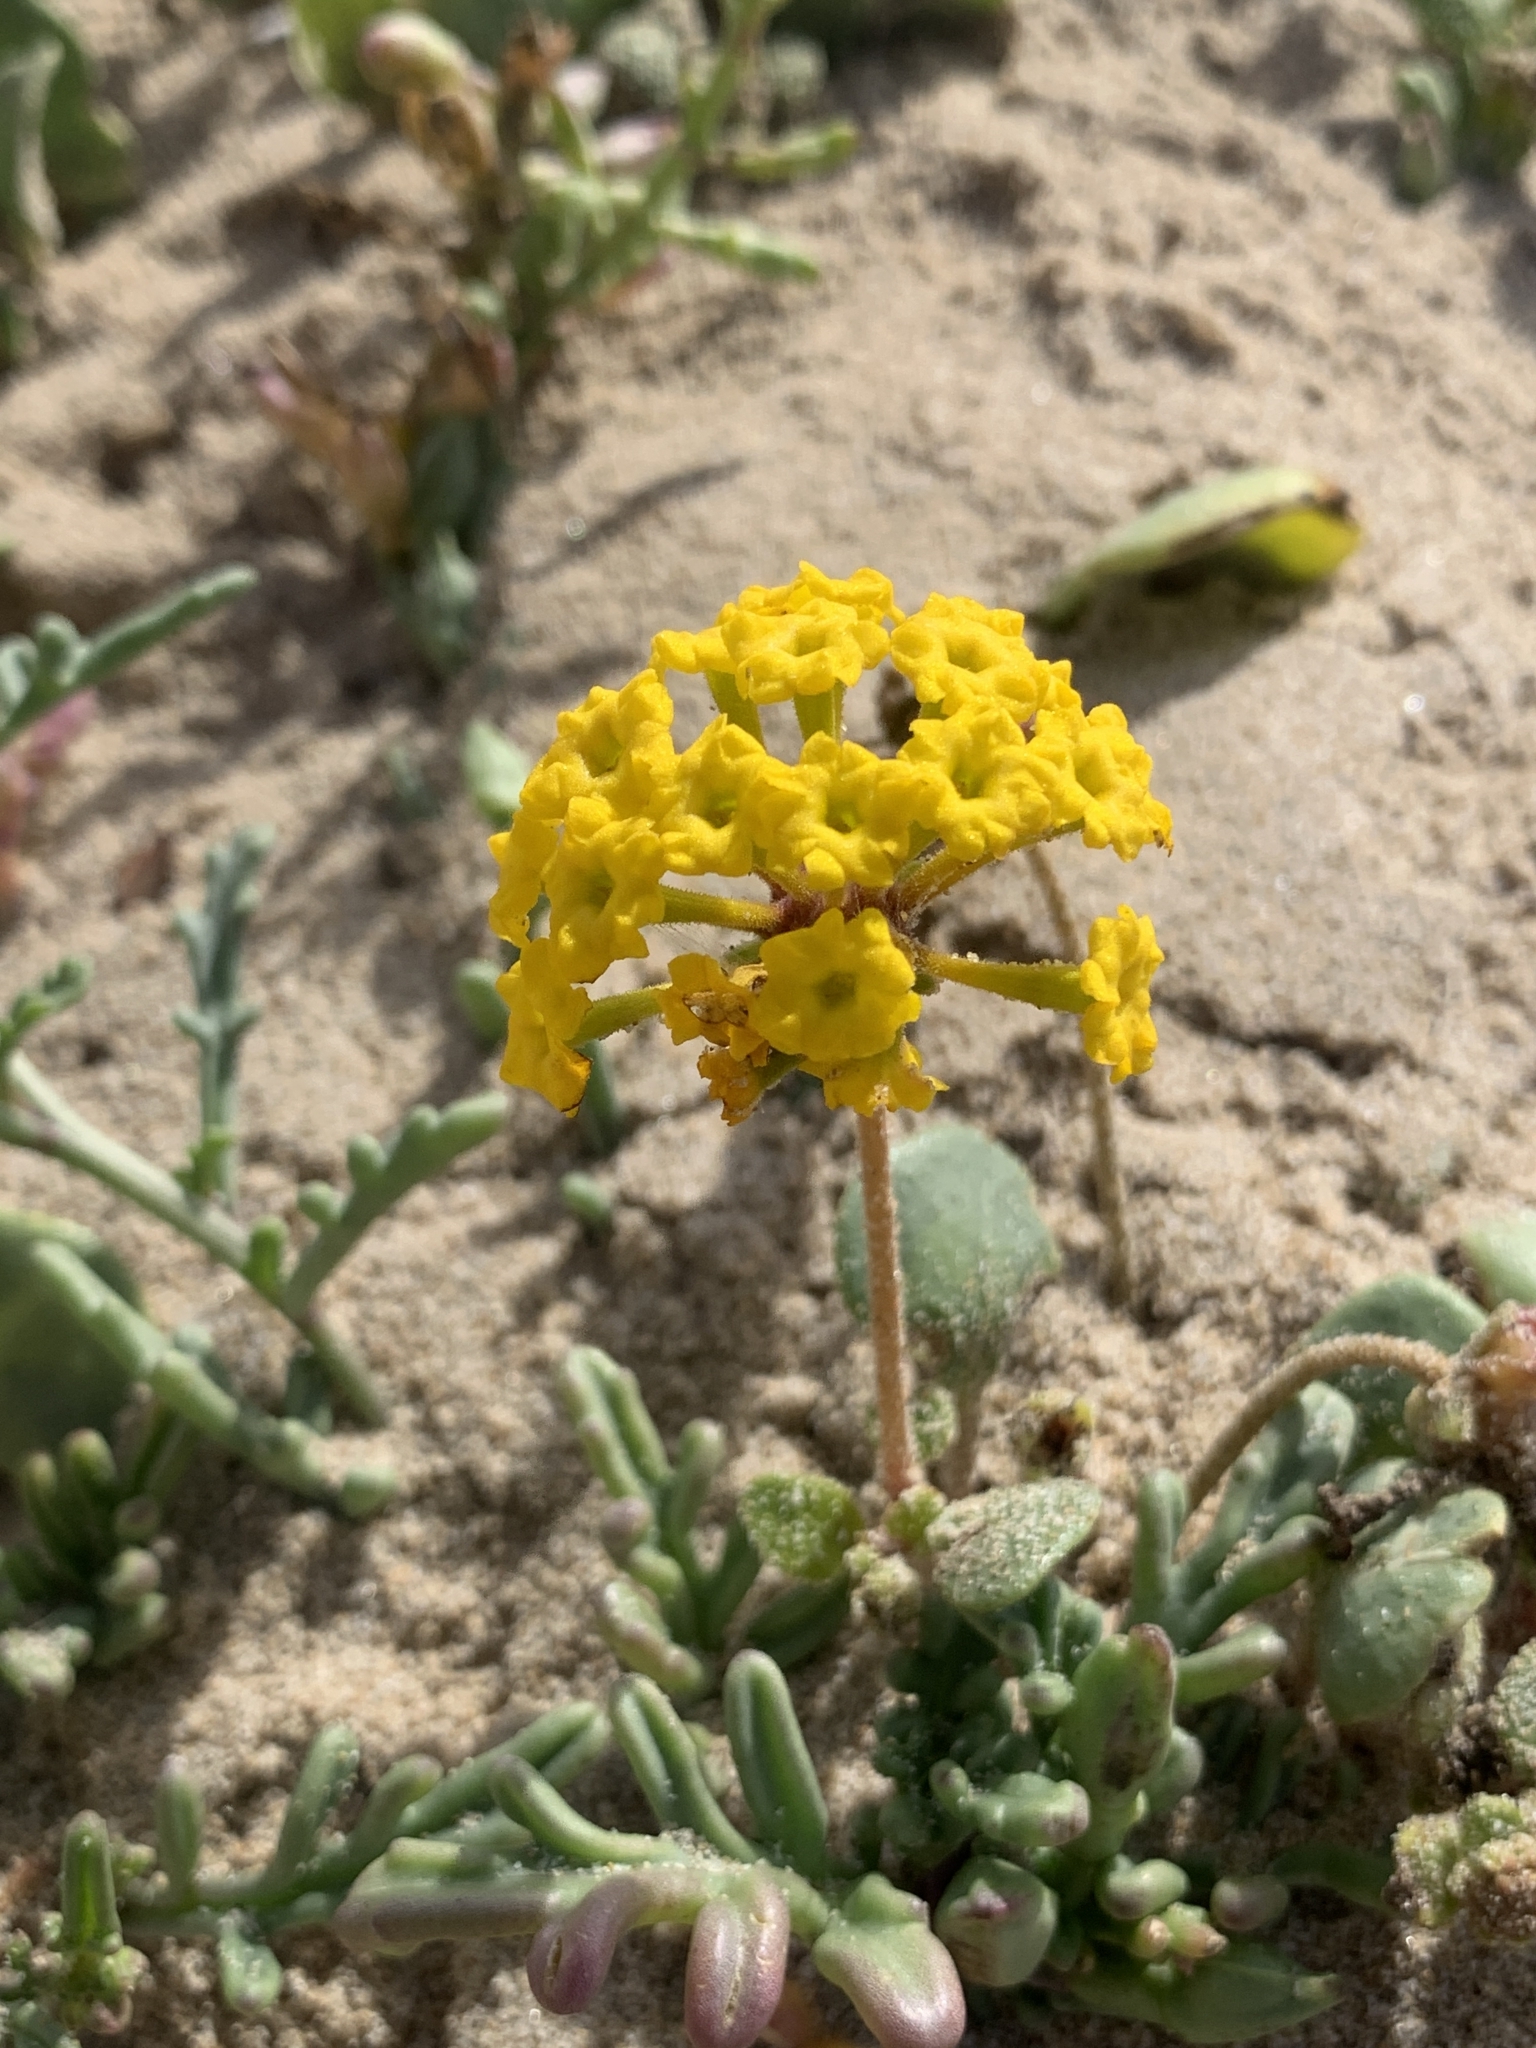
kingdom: Plantae
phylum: Tracheophyta
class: Magnoliopsida
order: Caryophyllales
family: Nyctaginaceae
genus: Abronia
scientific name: Abronia latifolia
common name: Yellow sand-verbena
